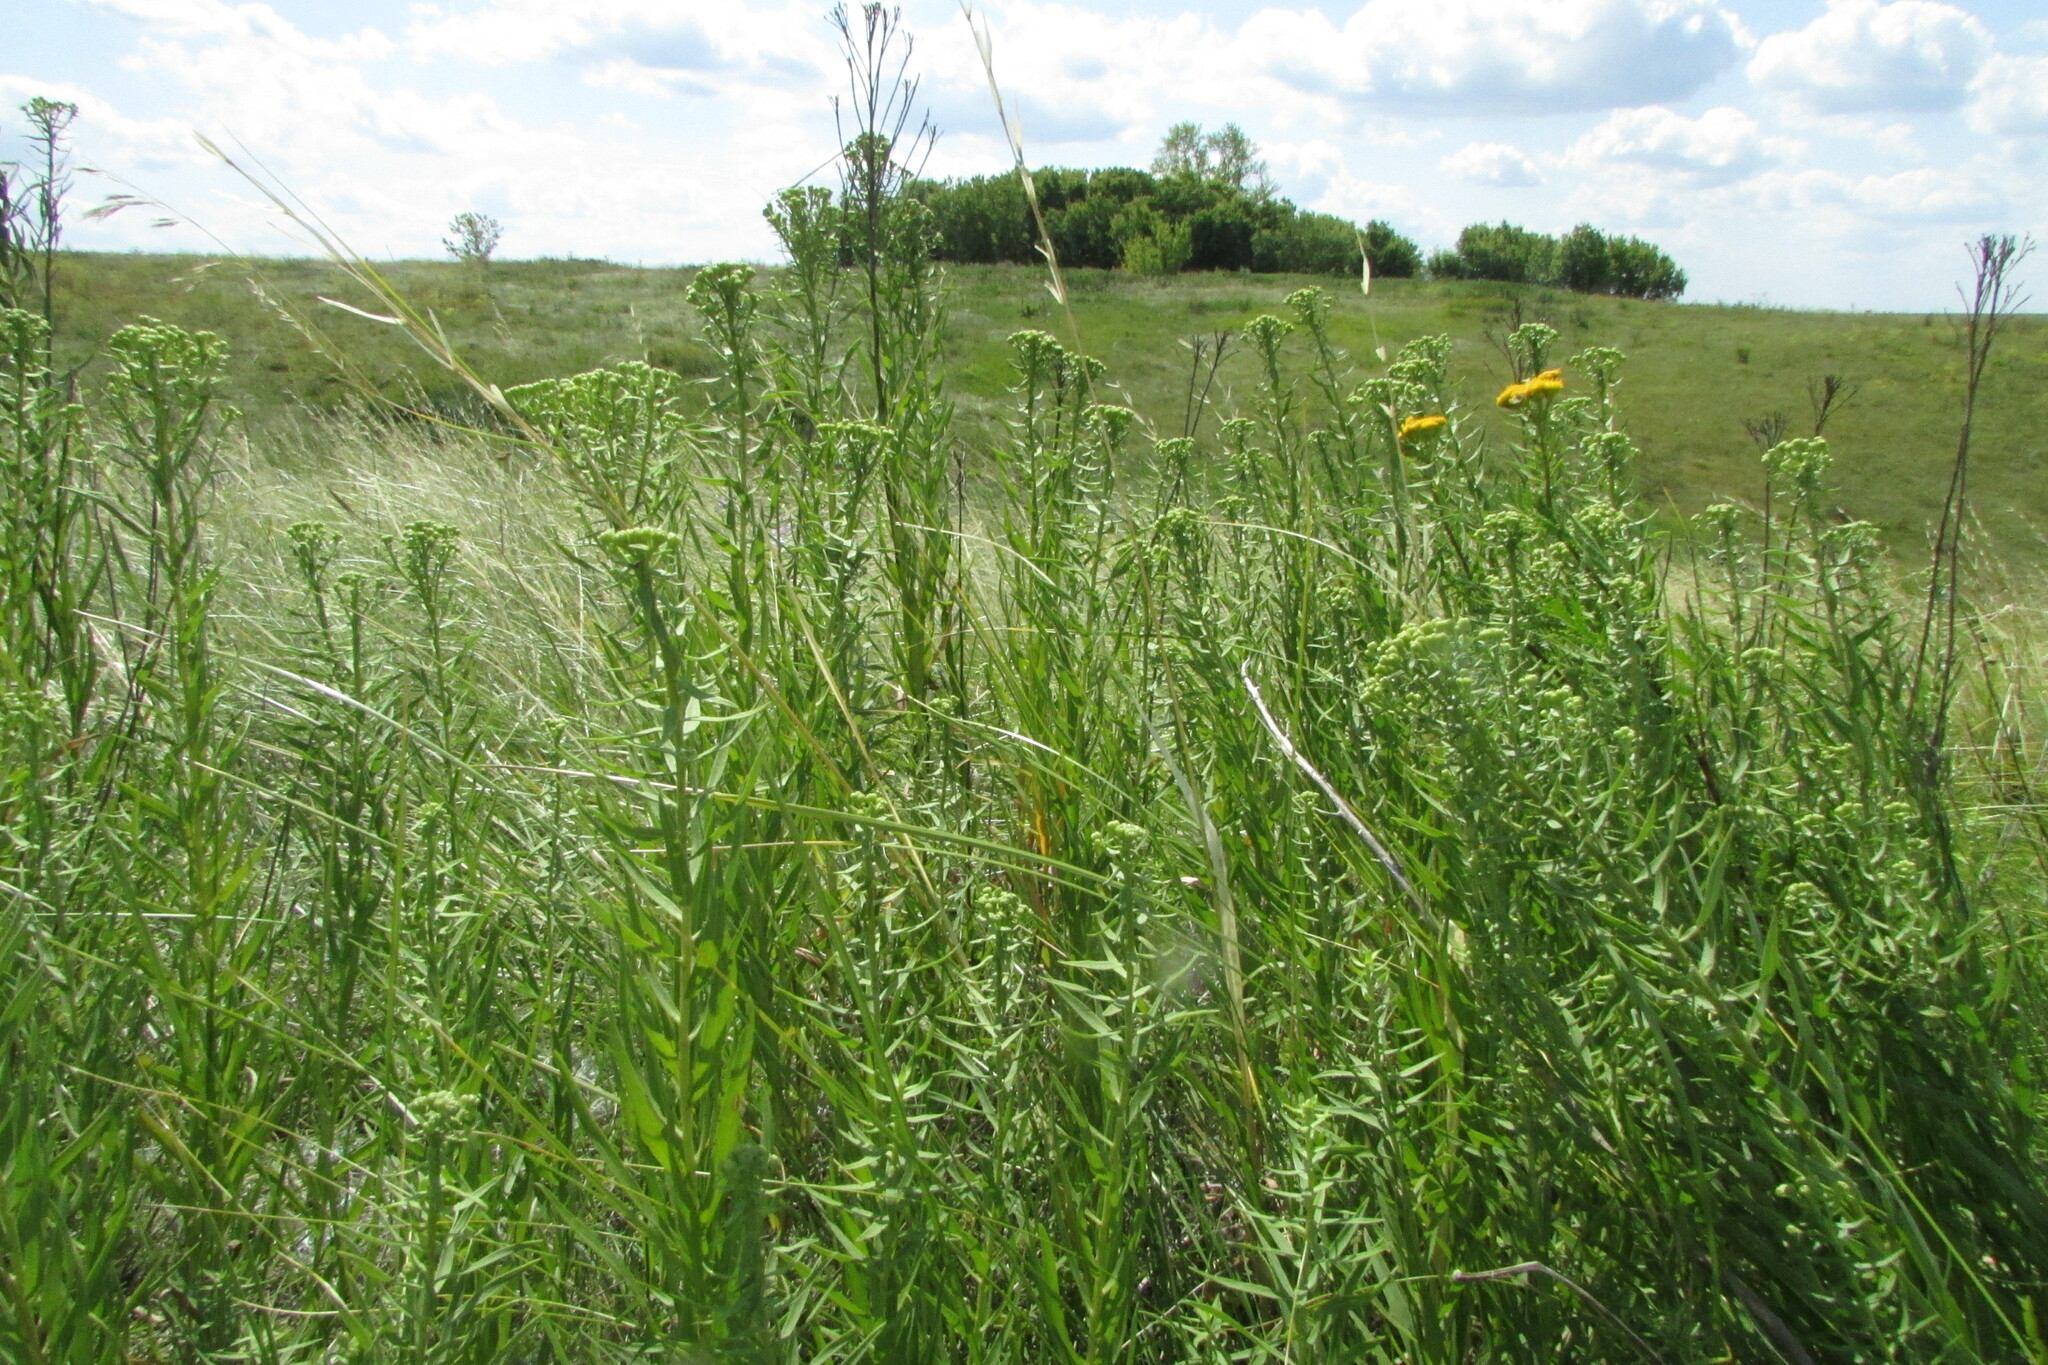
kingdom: Plantae
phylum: Tracheophyta
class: Magnoliopsida
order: Asterales
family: Asteraceae
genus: Galatella
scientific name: Galatella biflora
